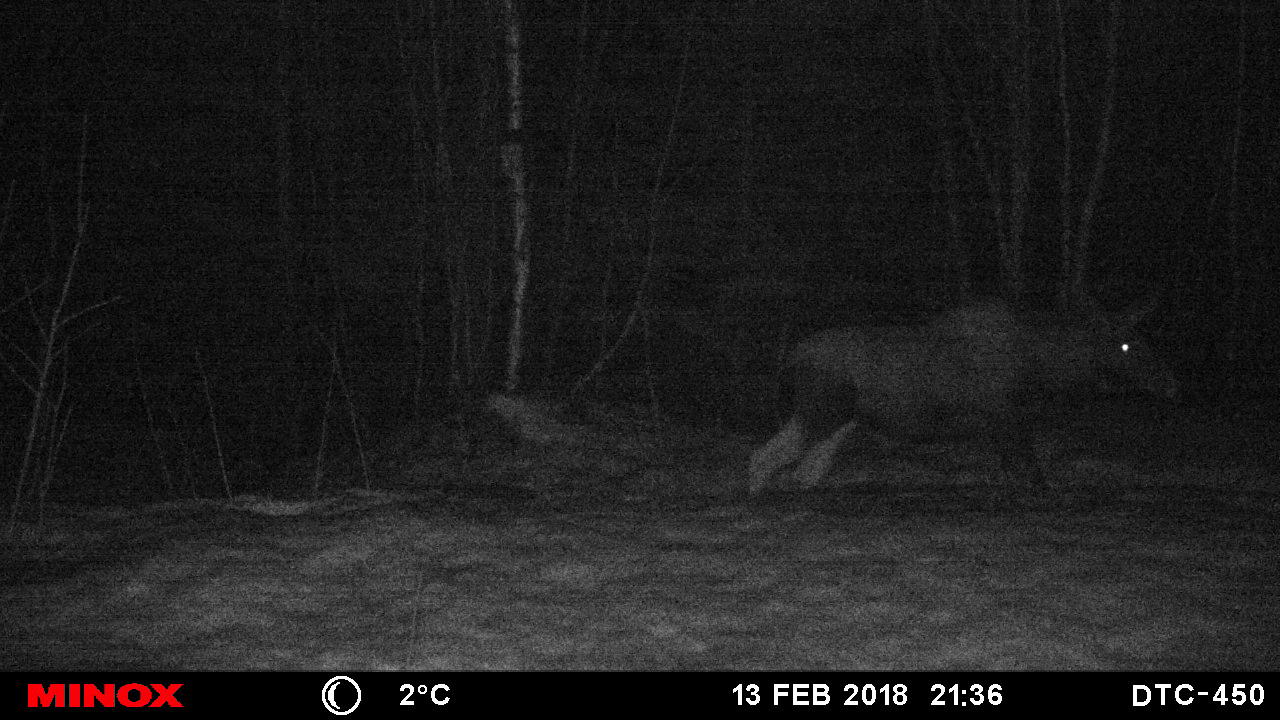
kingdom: Animalia
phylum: Chordata
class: Mammalia
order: Artiodactyla
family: Cervidae
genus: Alces
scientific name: Alces alces
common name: Moose
